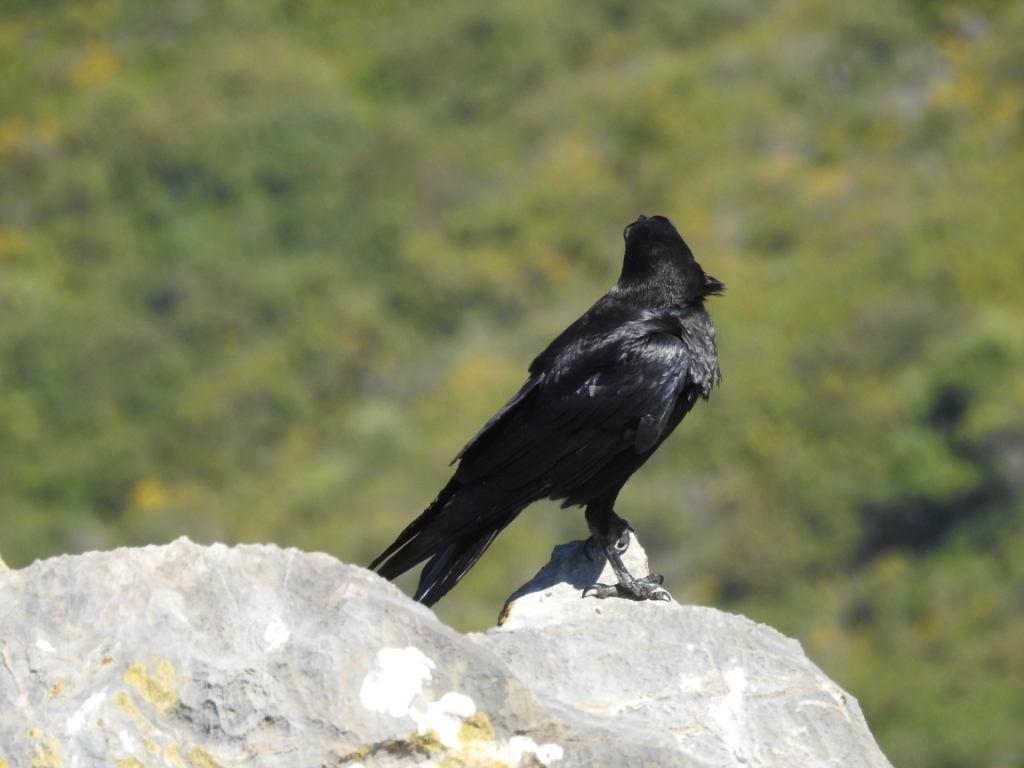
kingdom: Animalia
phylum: Chordata
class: Aves
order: Passeriformes
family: Corvidae
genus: Corvus
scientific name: Corvus corax
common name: Common raven
